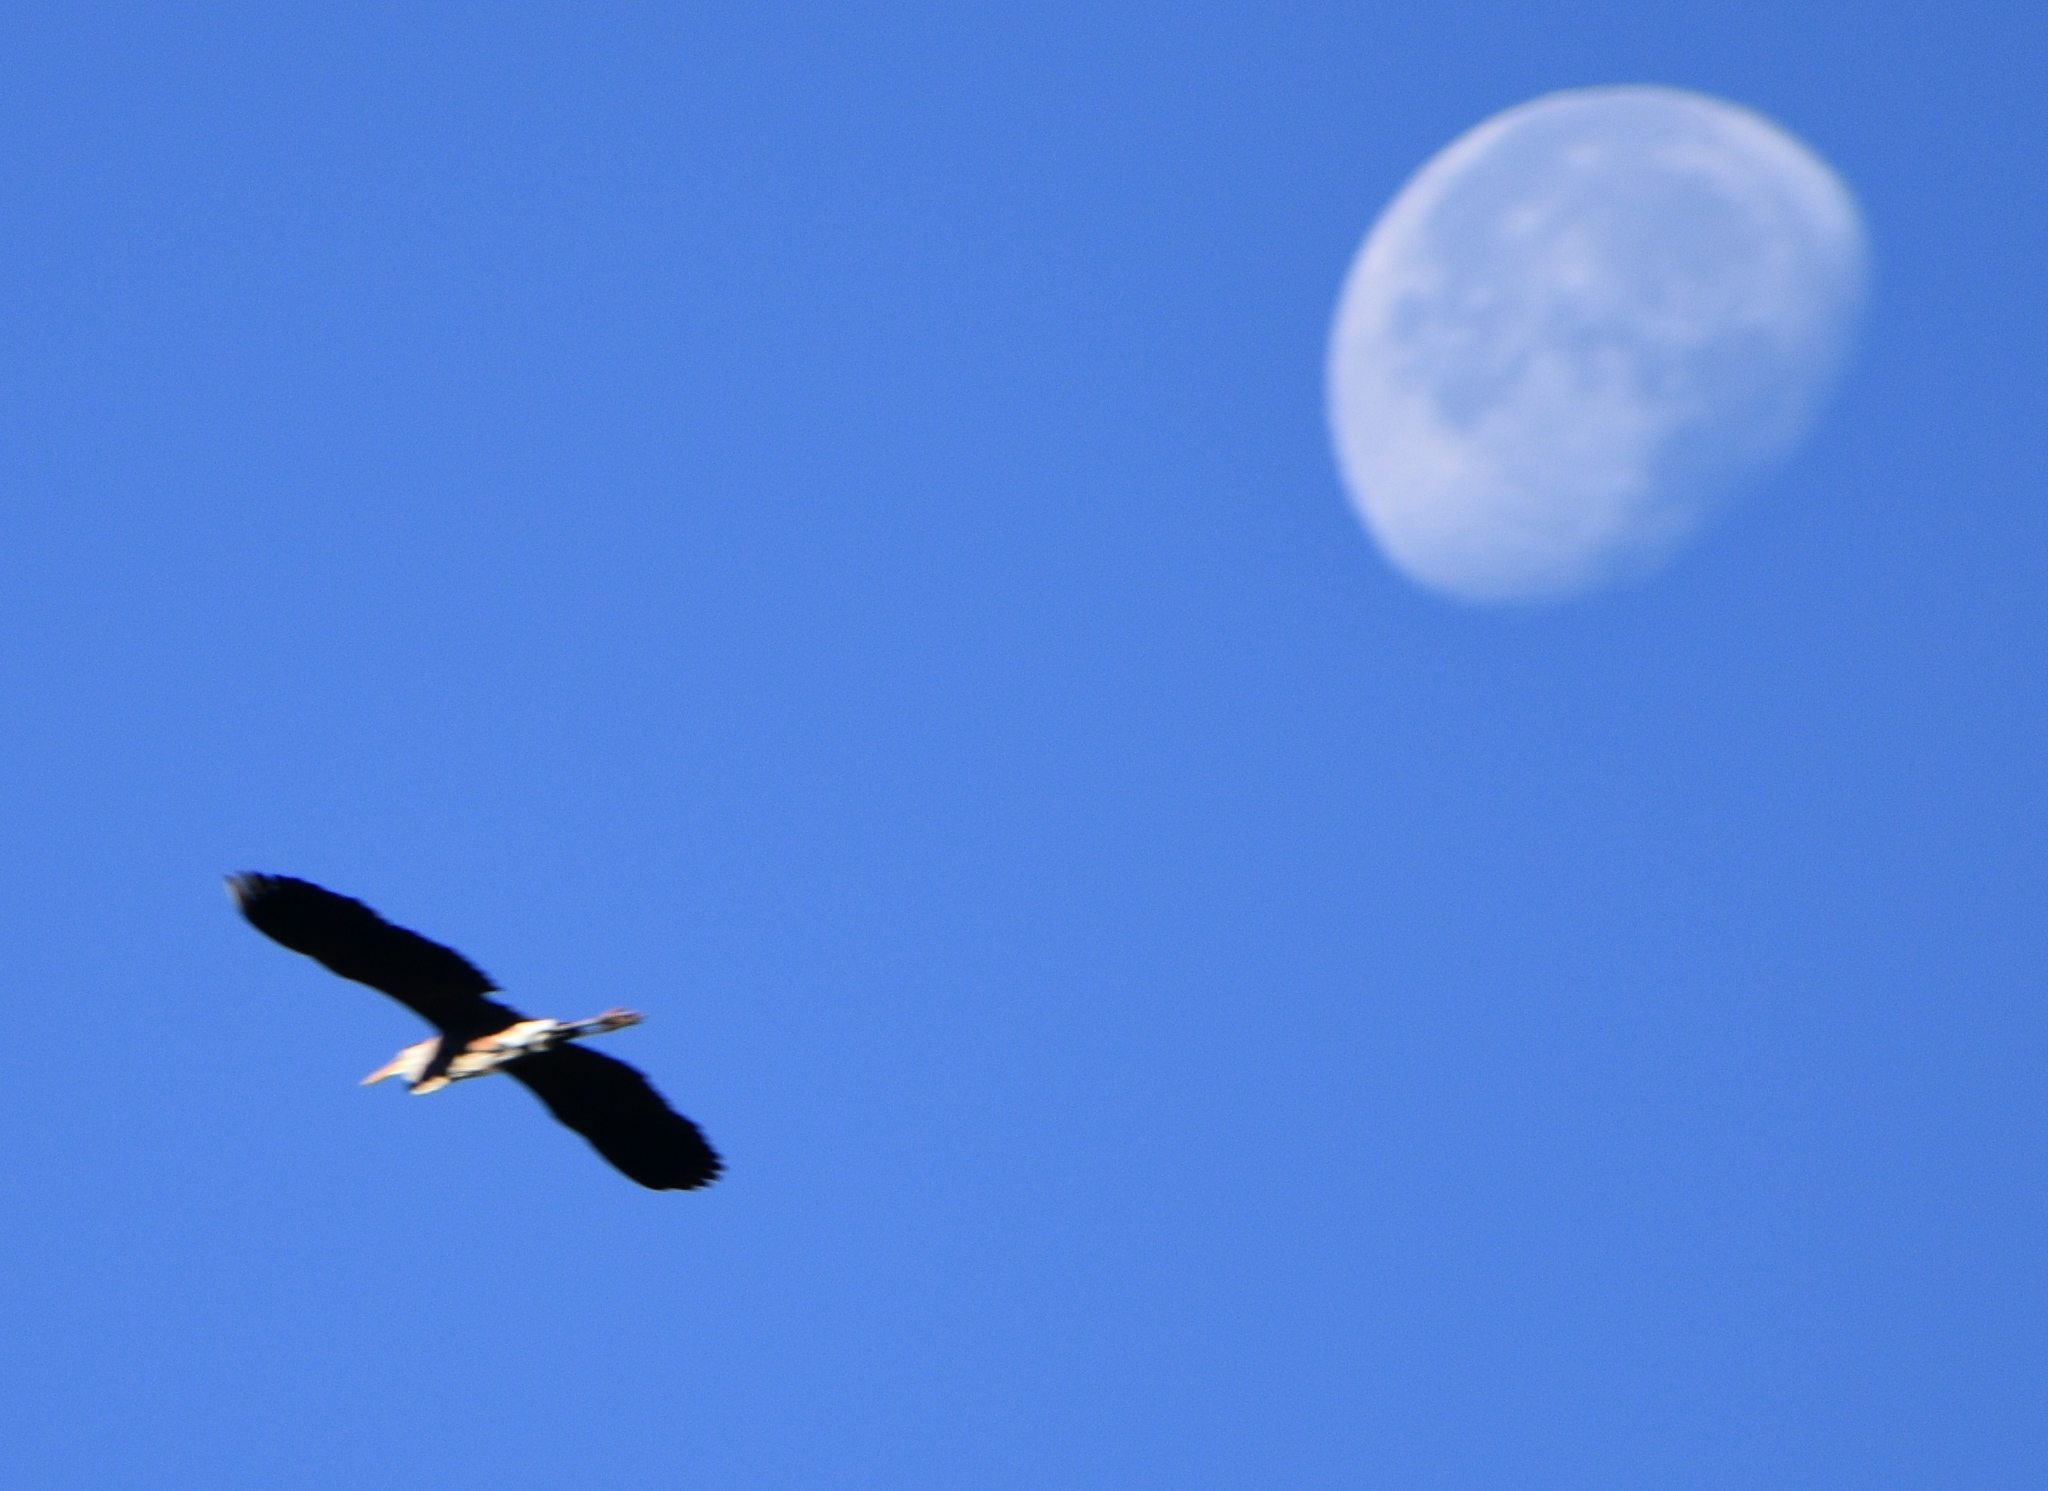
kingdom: Animalia
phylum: Chordata
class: Aves
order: Pelecaniformes
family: Ardeidae
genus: Ardea
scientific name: Ardea herodias
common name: Great blue heron
